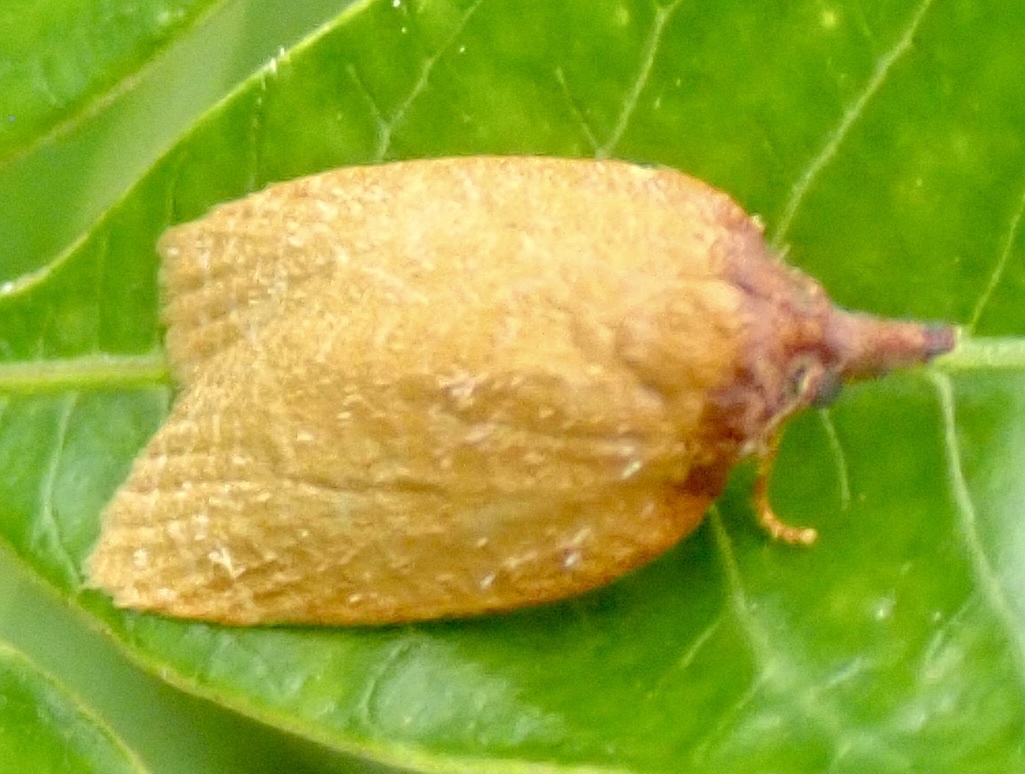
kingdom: Animalia
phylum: Arthropoda
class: Insecta
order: Lepidoptera
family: Tortricidae
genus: Sparganothis
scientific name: Sparganothis distincta
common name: Distinct sparganothis moth
